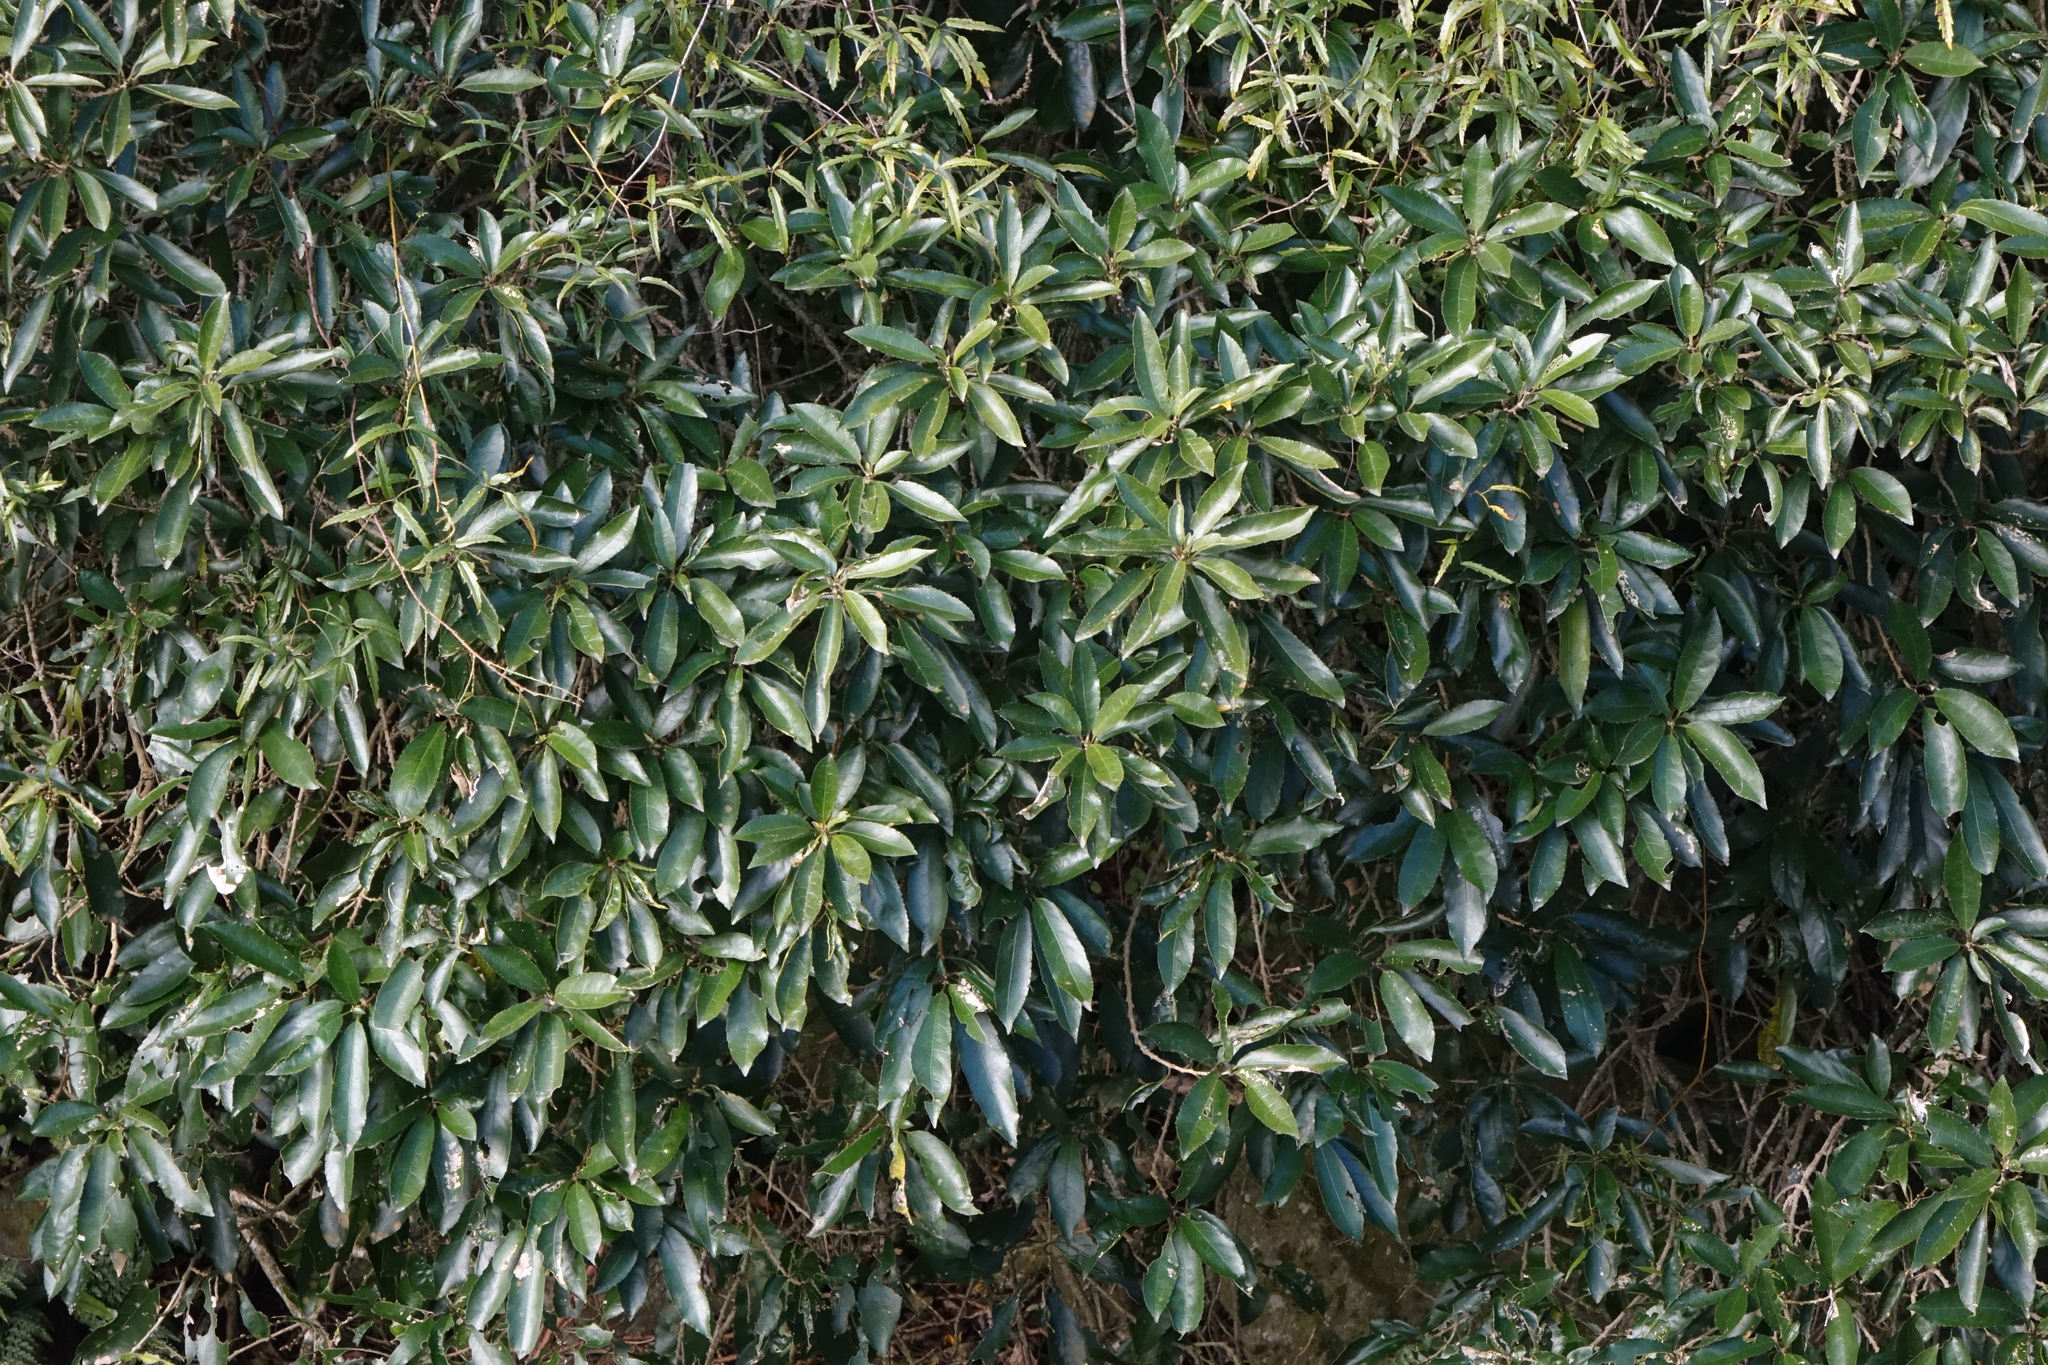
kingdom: Plantae
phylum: Tracheophyta
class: Magnoliopsida
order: Malpighiales
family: Violaceae
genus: Melicytus
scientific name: Melicytus ramiflorus
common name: Mahoe
